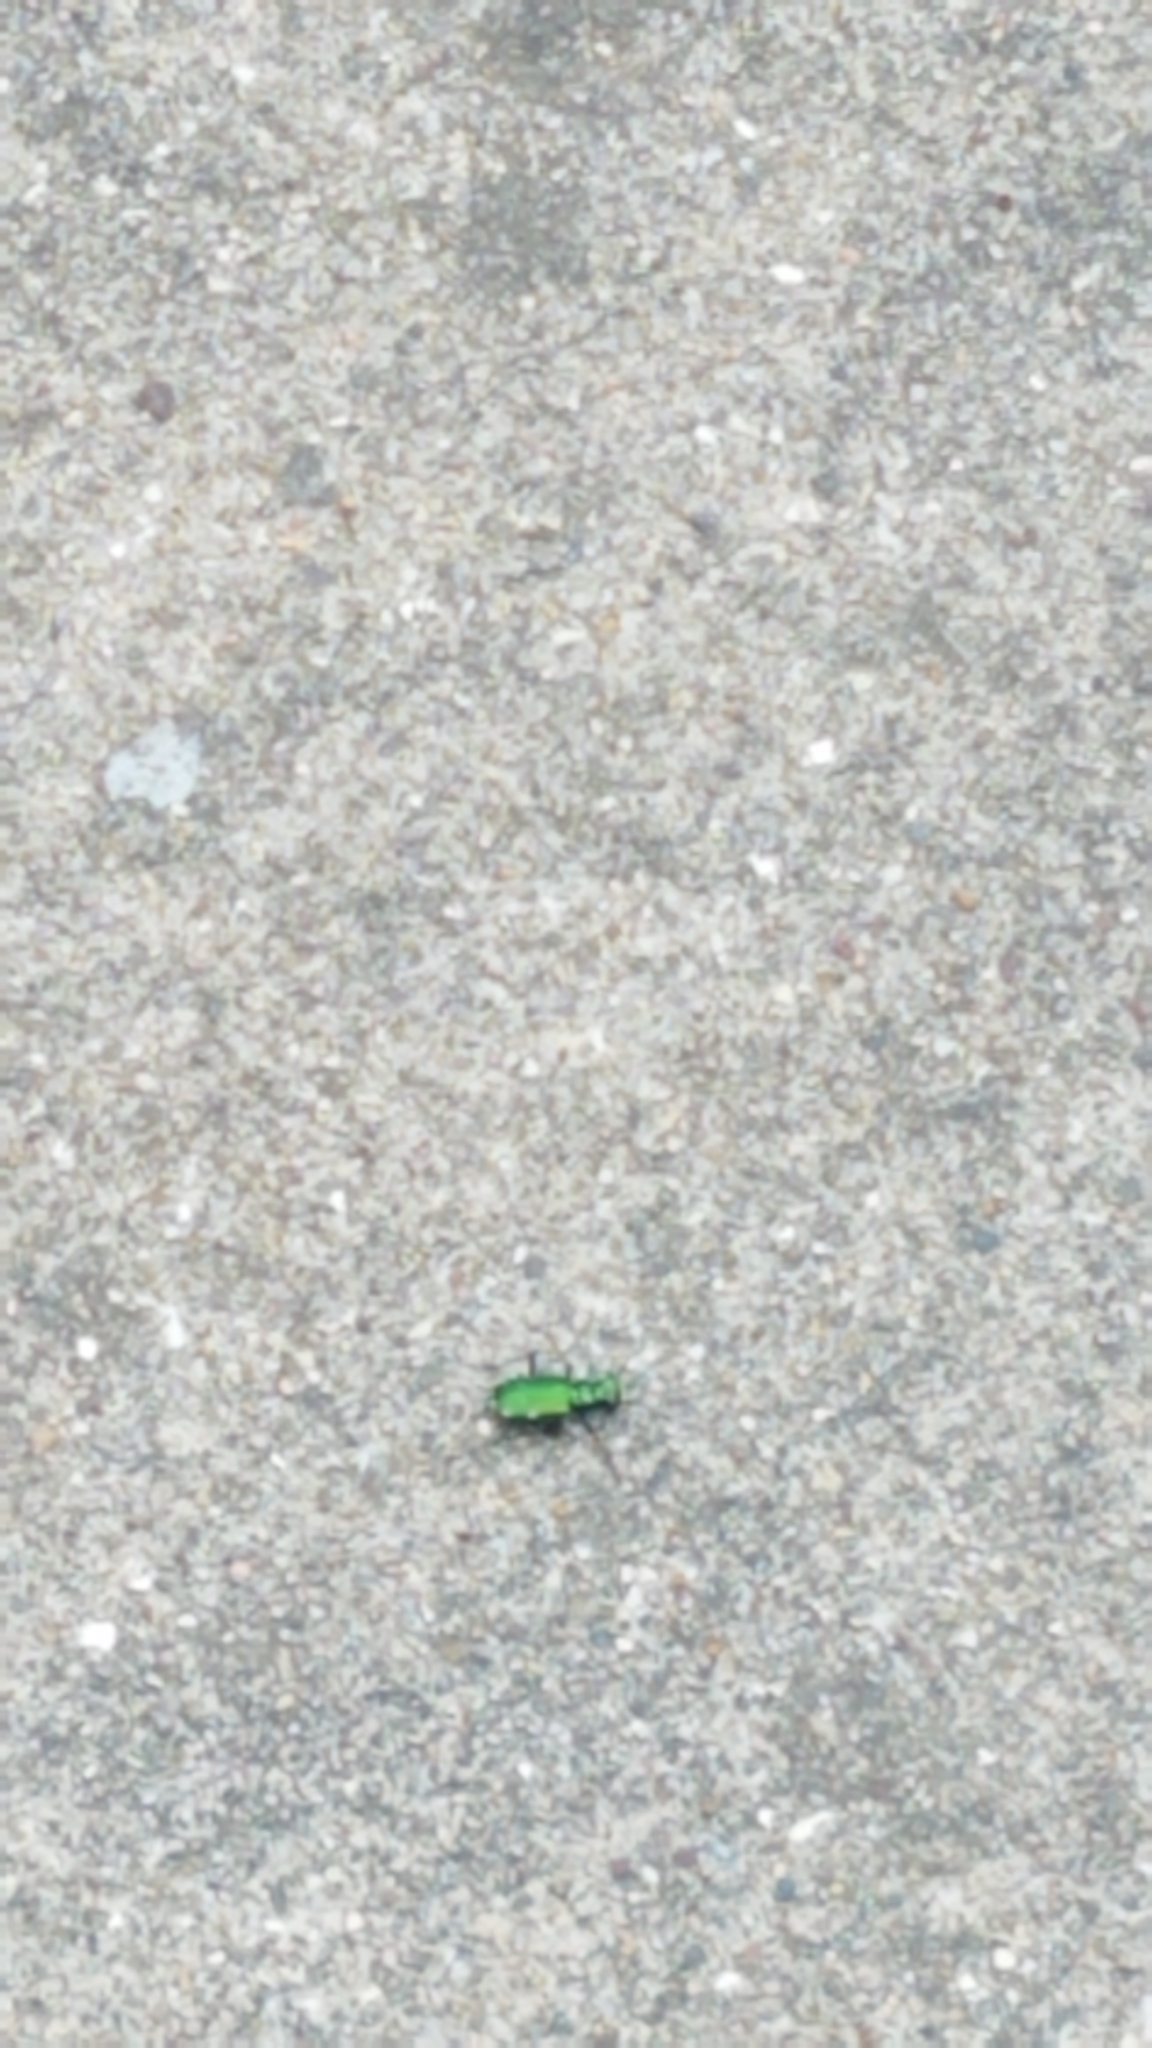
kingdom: Animalia
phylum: Arthropoda
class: Insecta
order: Coleoptera
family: Carabidae
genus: Cicindela
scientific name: Cicindela sexguttata
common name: Six-spotted tiger beetle
